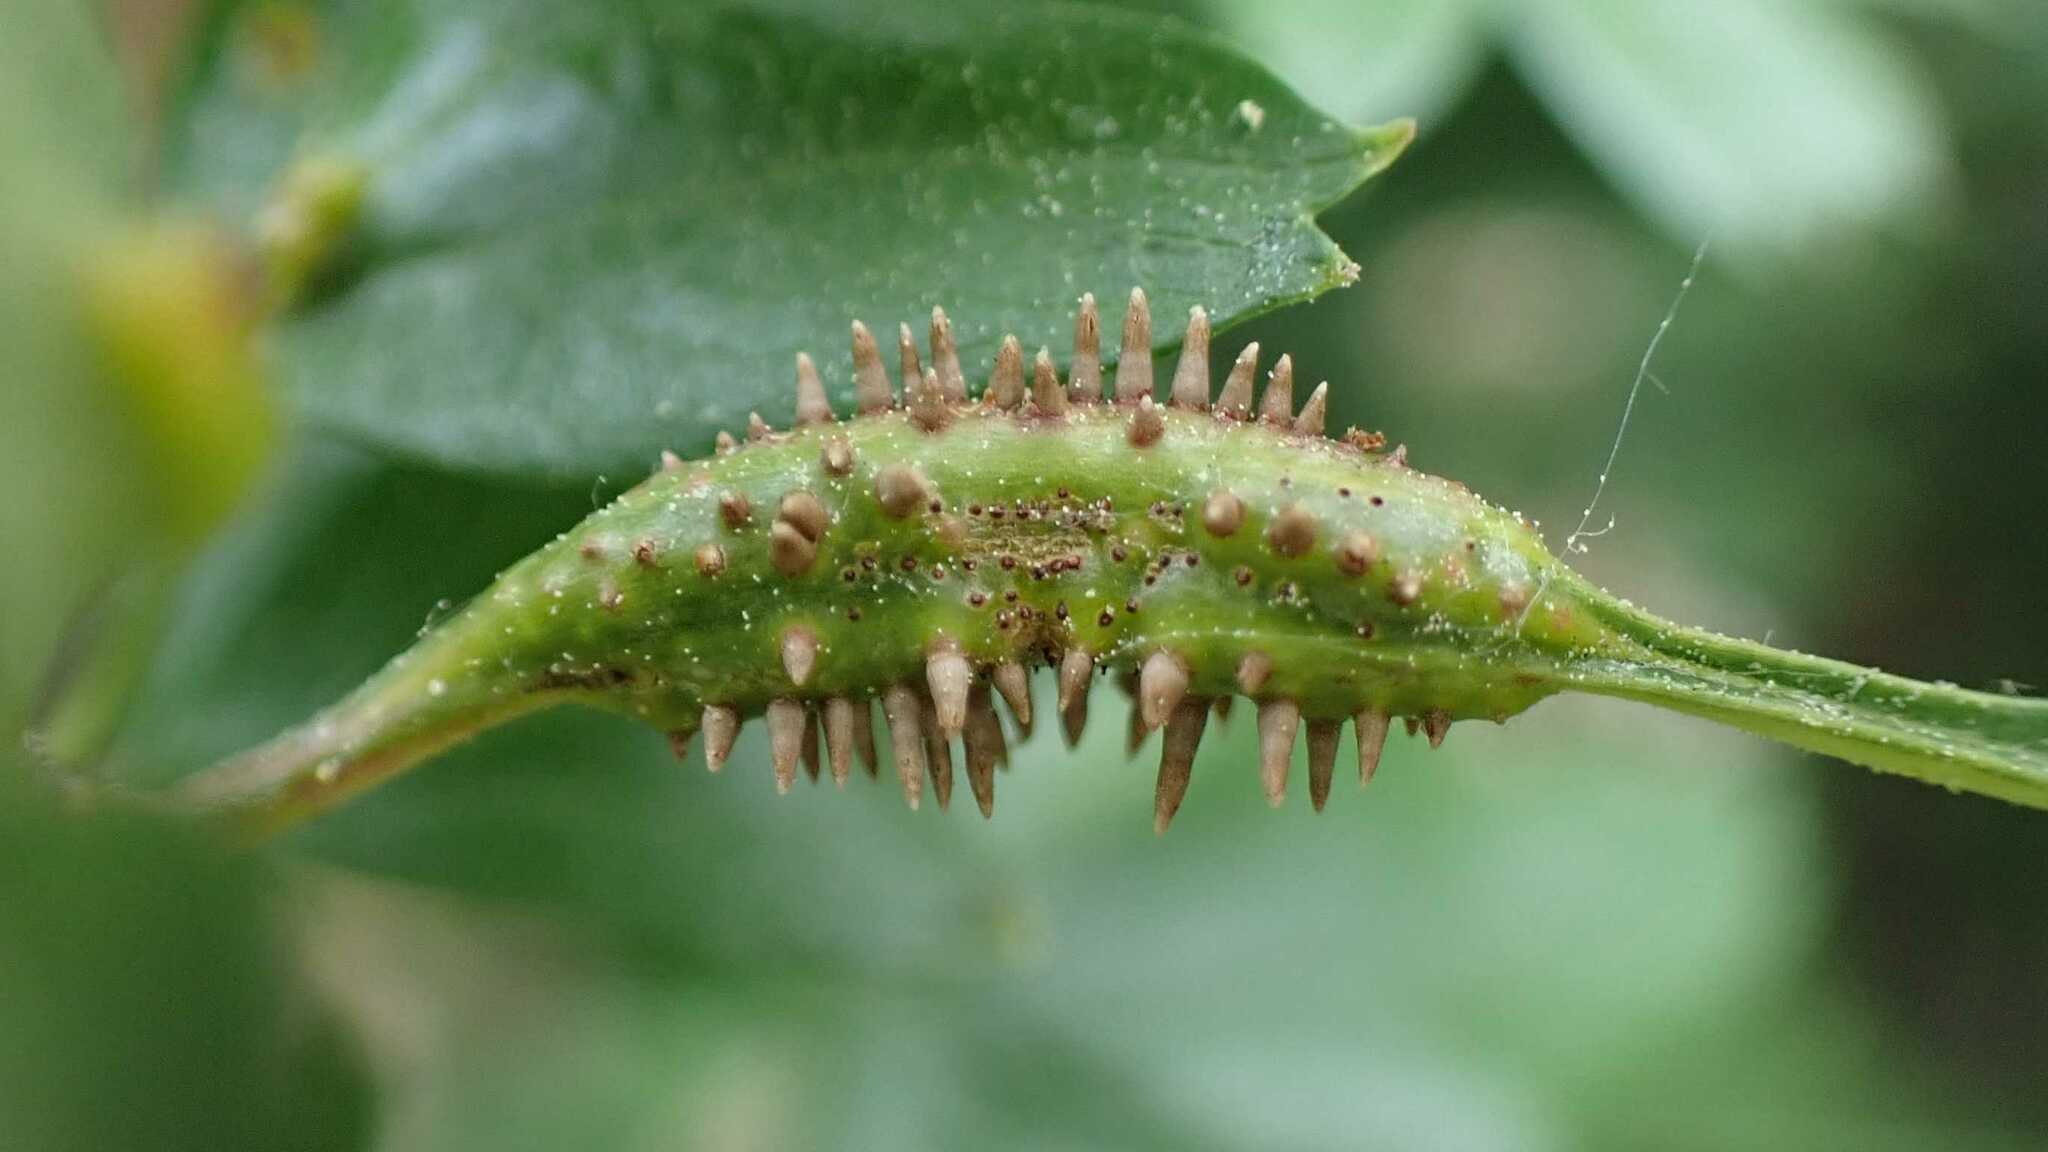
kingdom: Fungi
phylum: Basidiomycota
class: Pucciniomycetes
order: Pucciniales
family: Gymnosporangiaceae
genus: Gymnosporangium
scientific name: Gymnosporangium clavariiforme
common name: Tongues of fire
